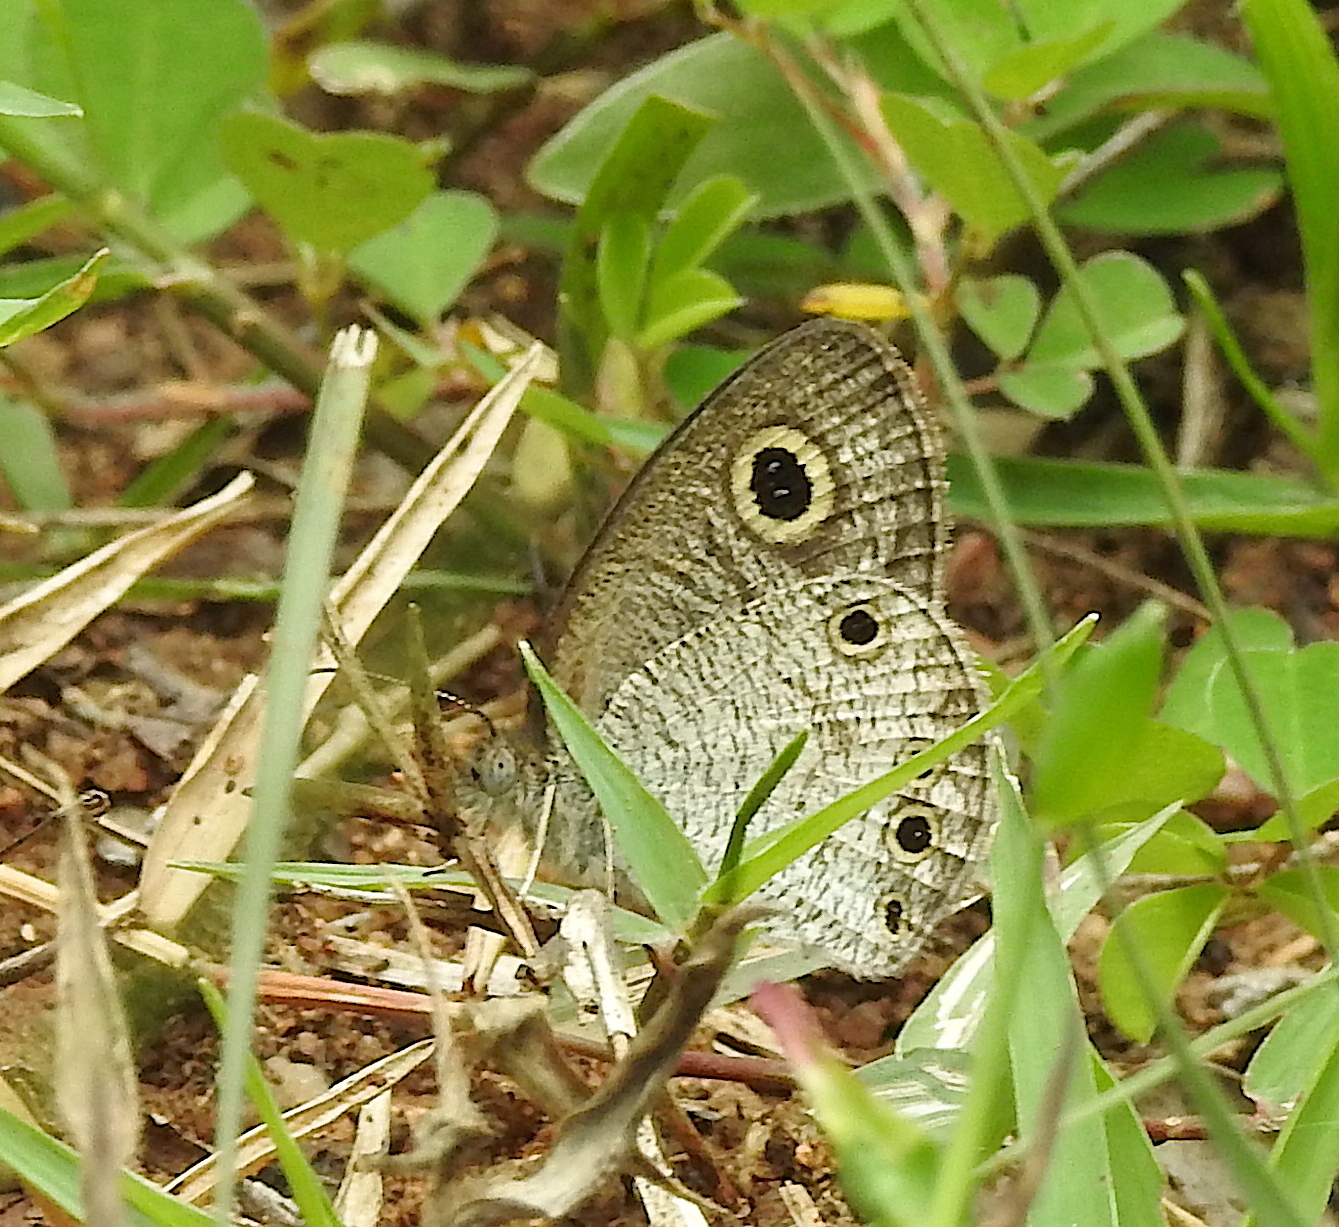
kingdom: Animalia
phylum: Arthropoda
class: Insecta
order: Lepidoptera
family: Nymphalidae
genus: Ypthima
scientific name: Ypthima huebneri
